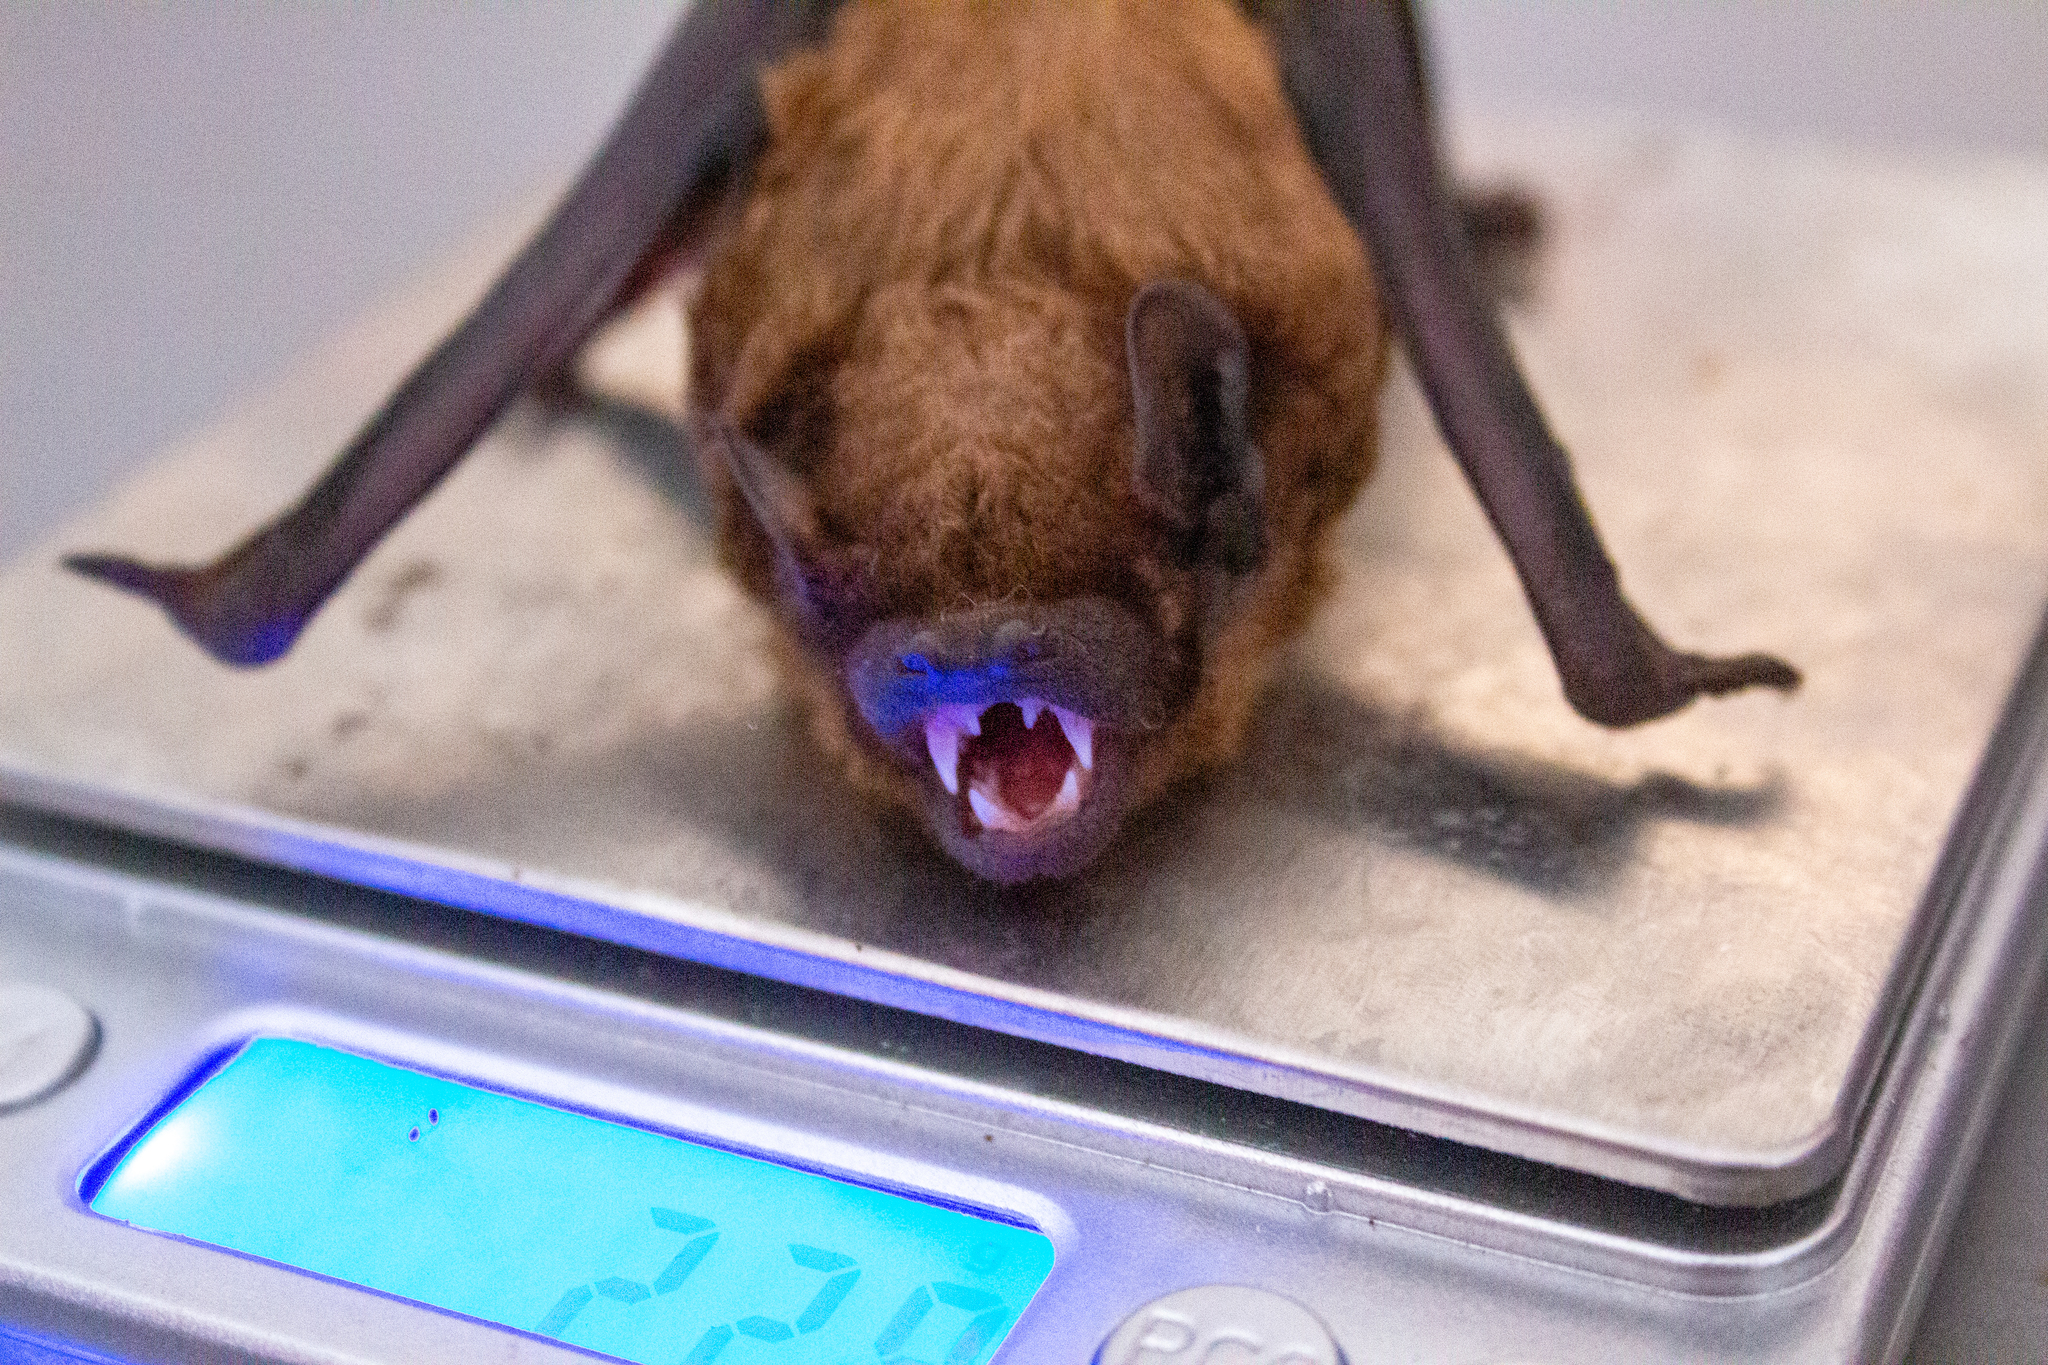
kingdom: Animalia
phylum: Chordata
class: Mammalia
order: Chiroptera
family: Vespertilionidae
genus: Nyctalus
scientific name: Nyctalus noctula
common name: Noctule
